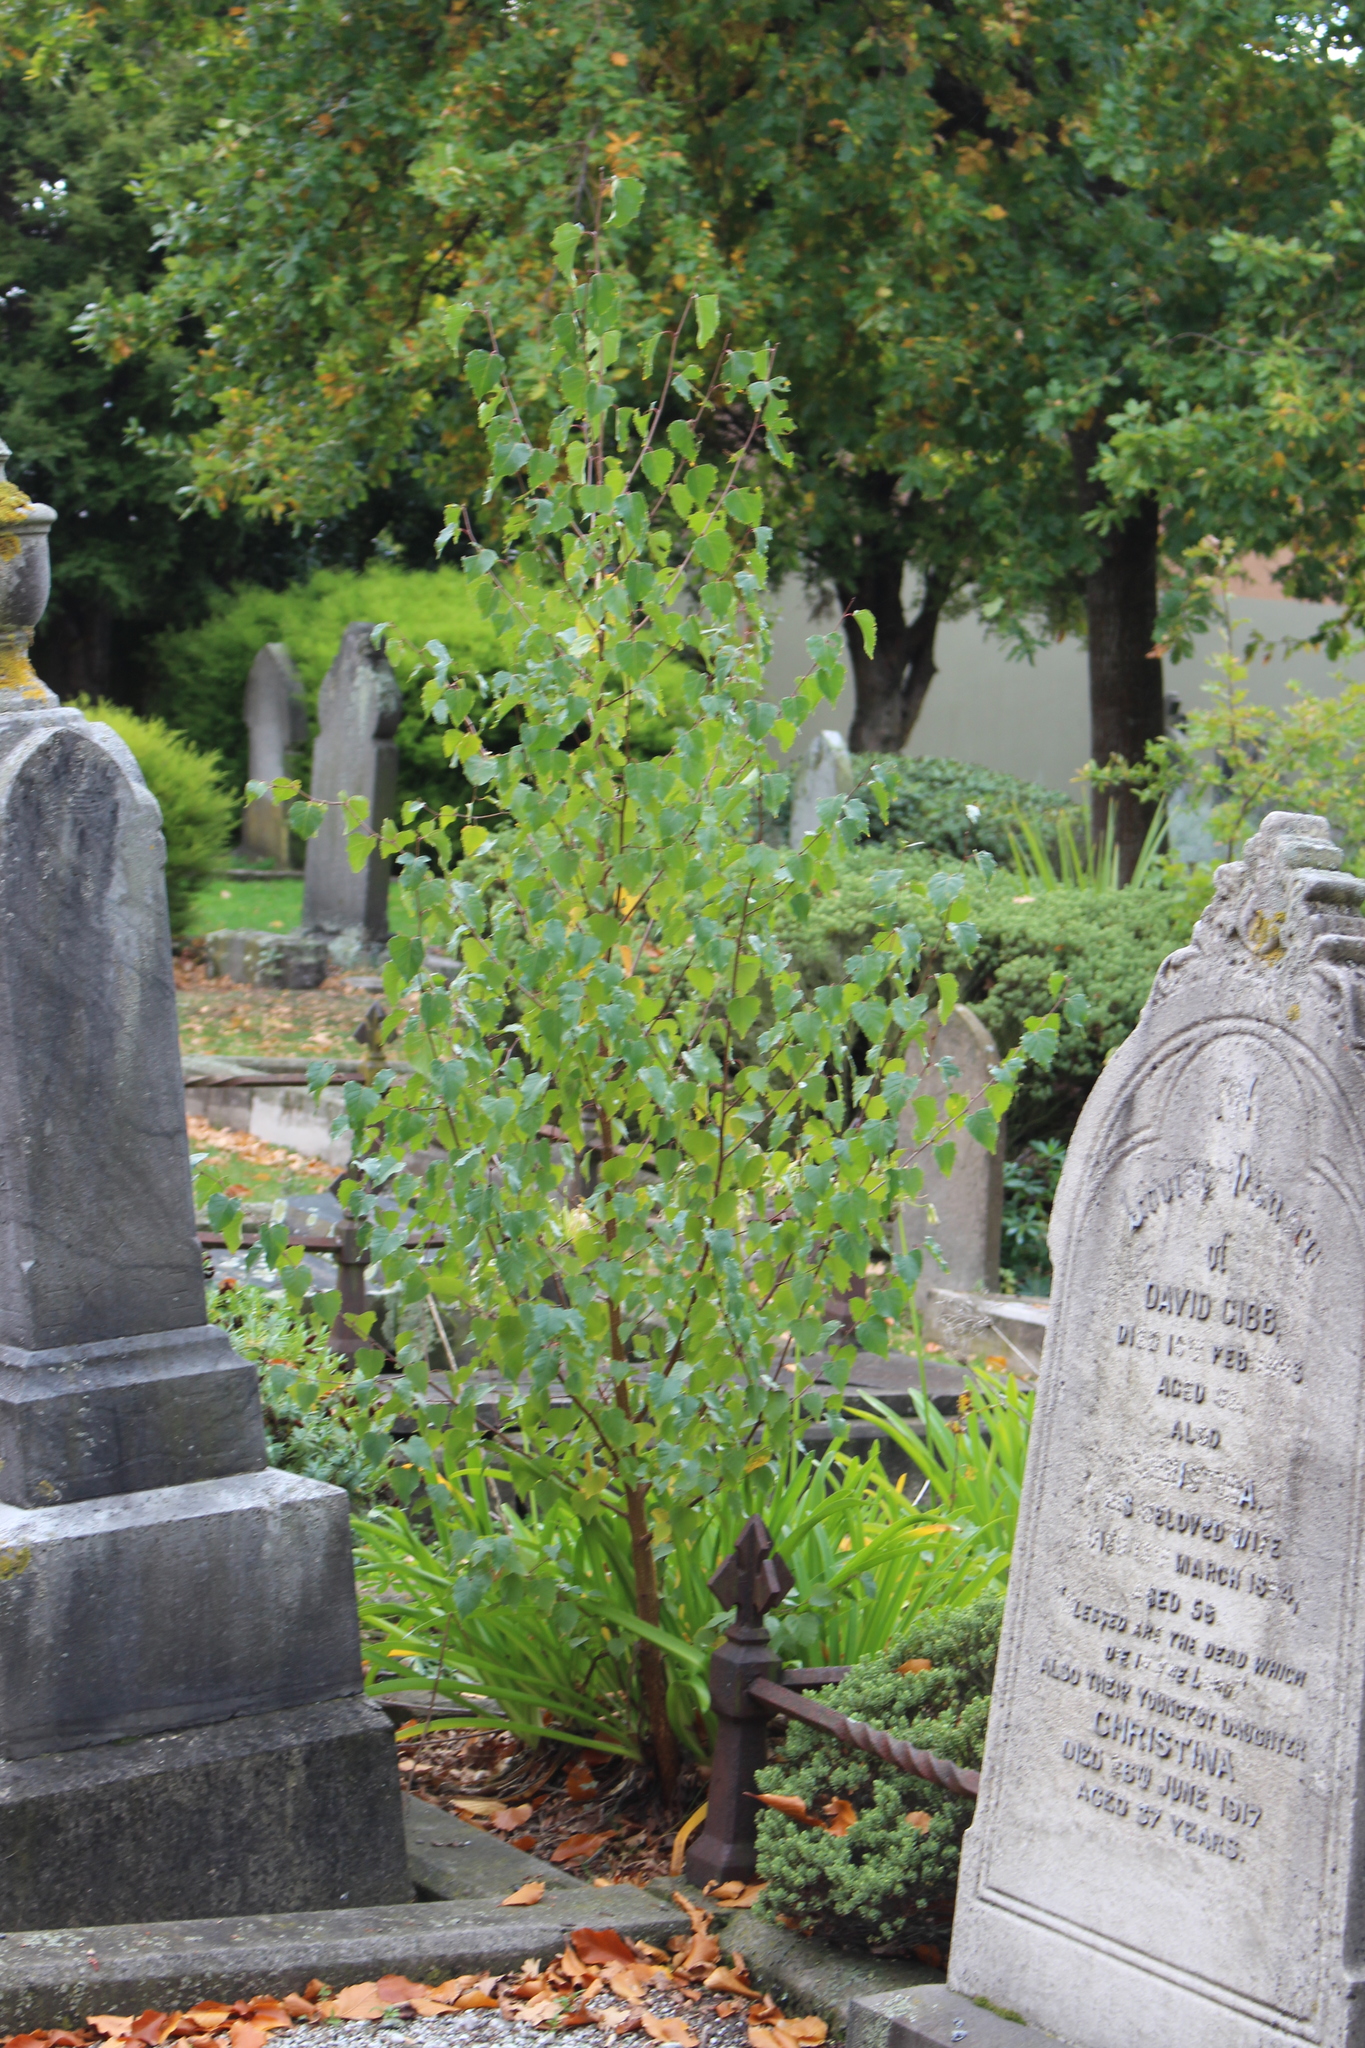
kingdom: Plantae
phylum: Tracheophyta
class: Magnoliopsida
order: Fagales
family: Betulaceae
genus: Betula
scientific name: Betula pendula
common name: Silver birch
